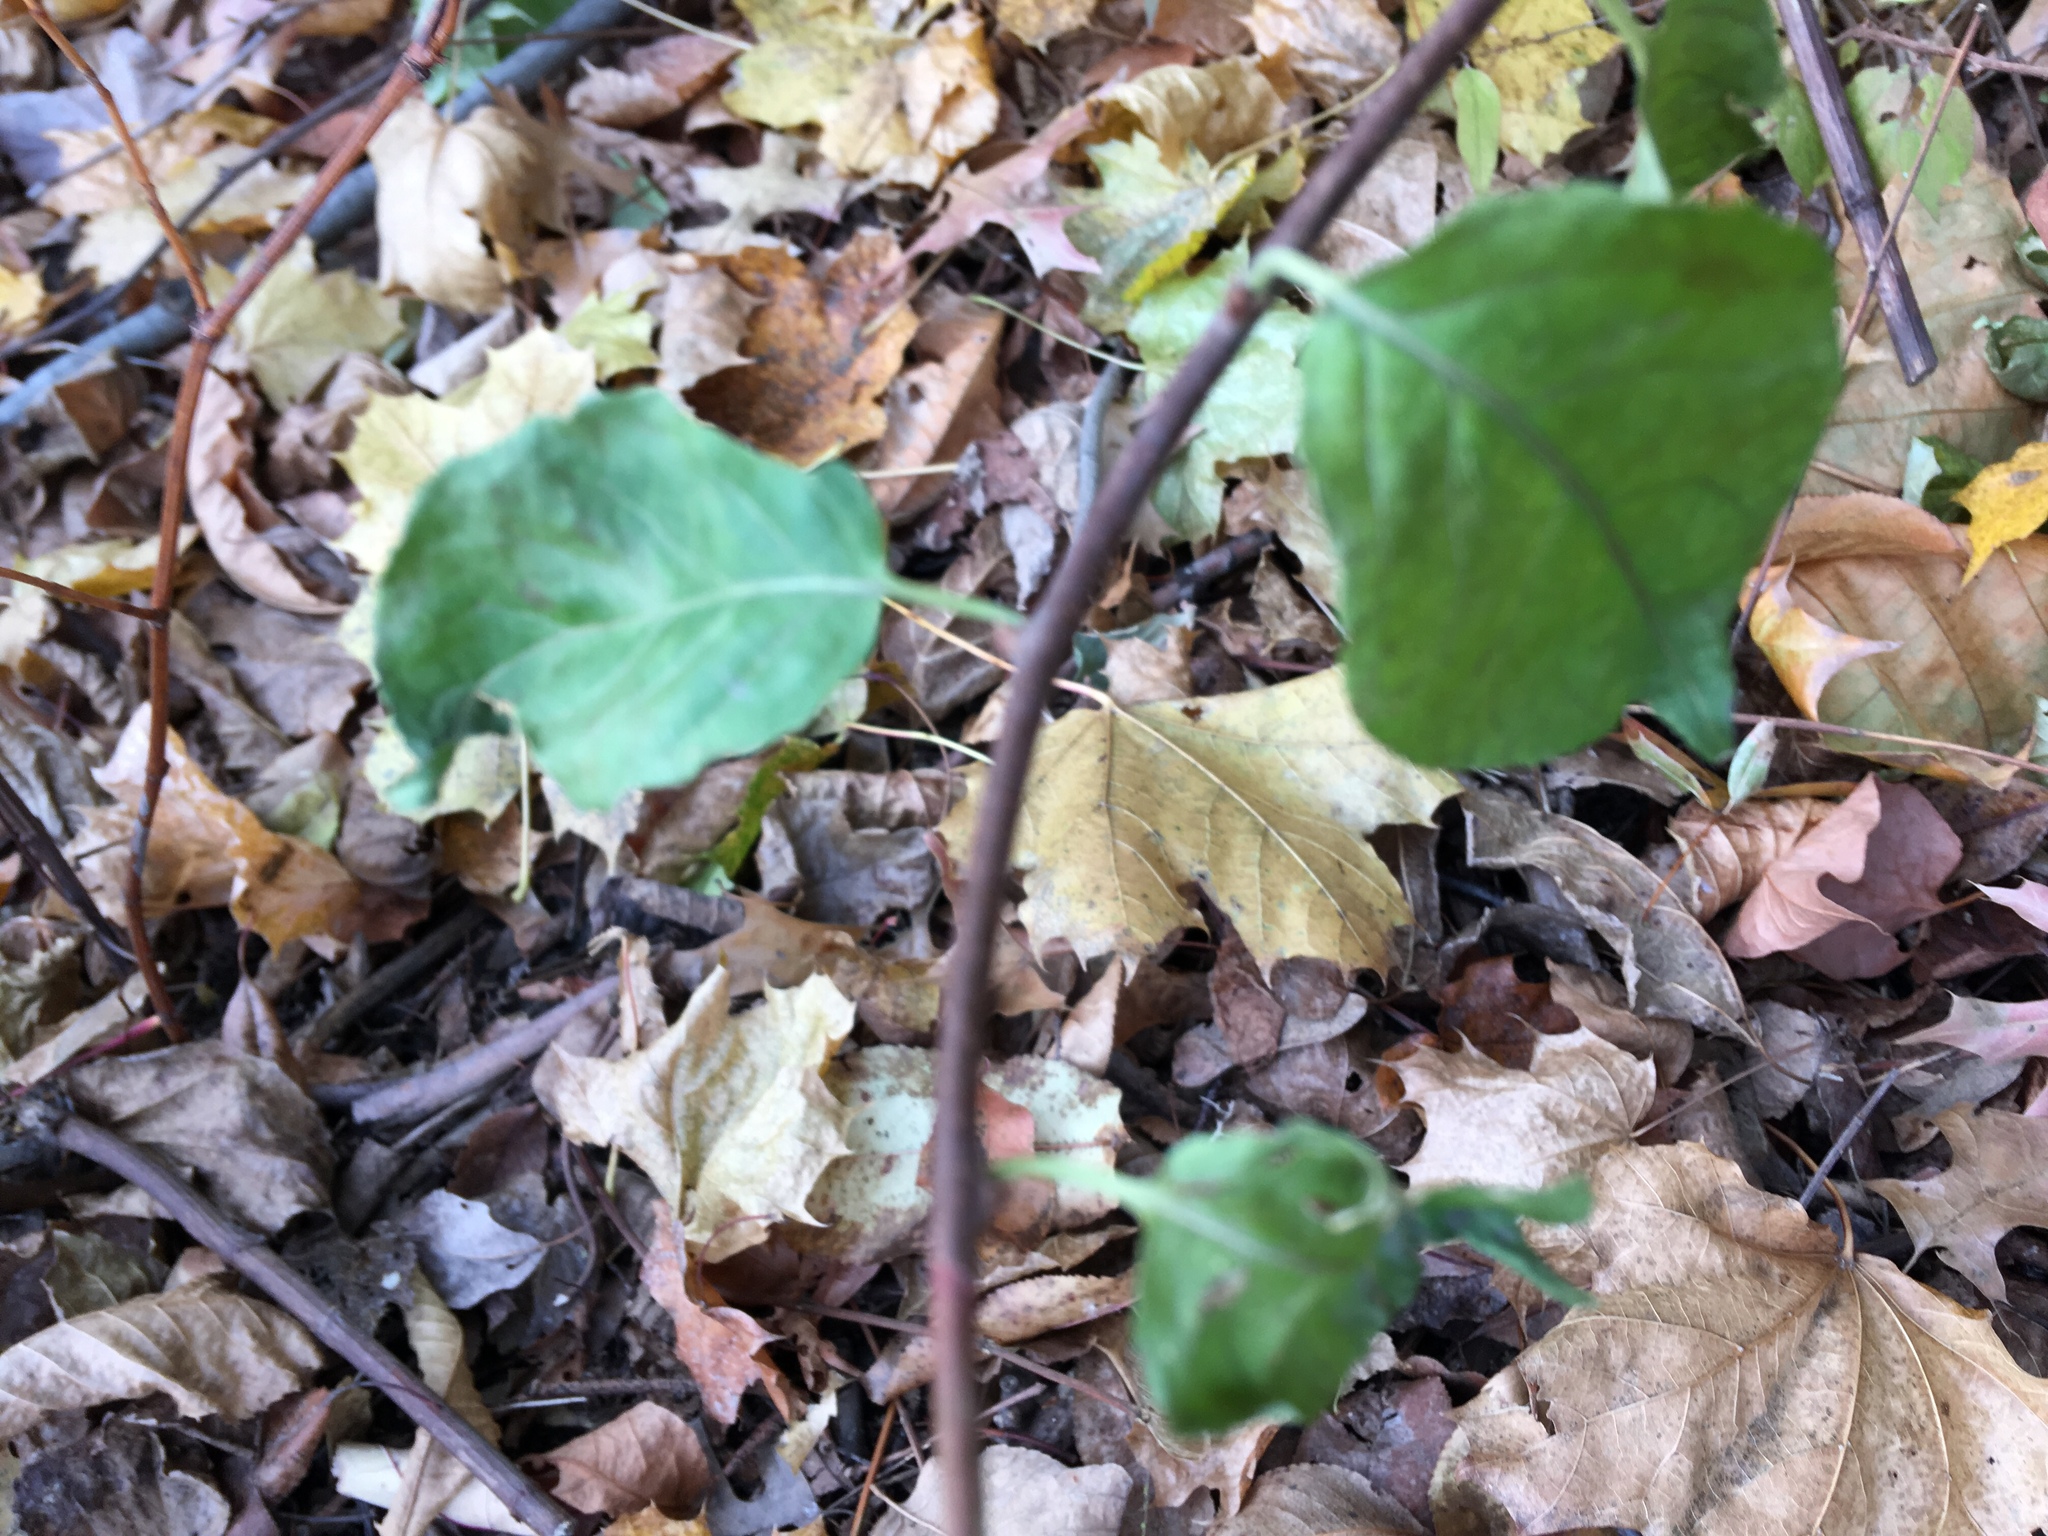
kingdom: Plantae
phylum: Tracheophyta
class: Magnoliopsida
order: Celastrales
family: Celastraceae
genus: Celastrus
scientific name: Celastrus orbiculatus
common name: Oriental bittersweet
